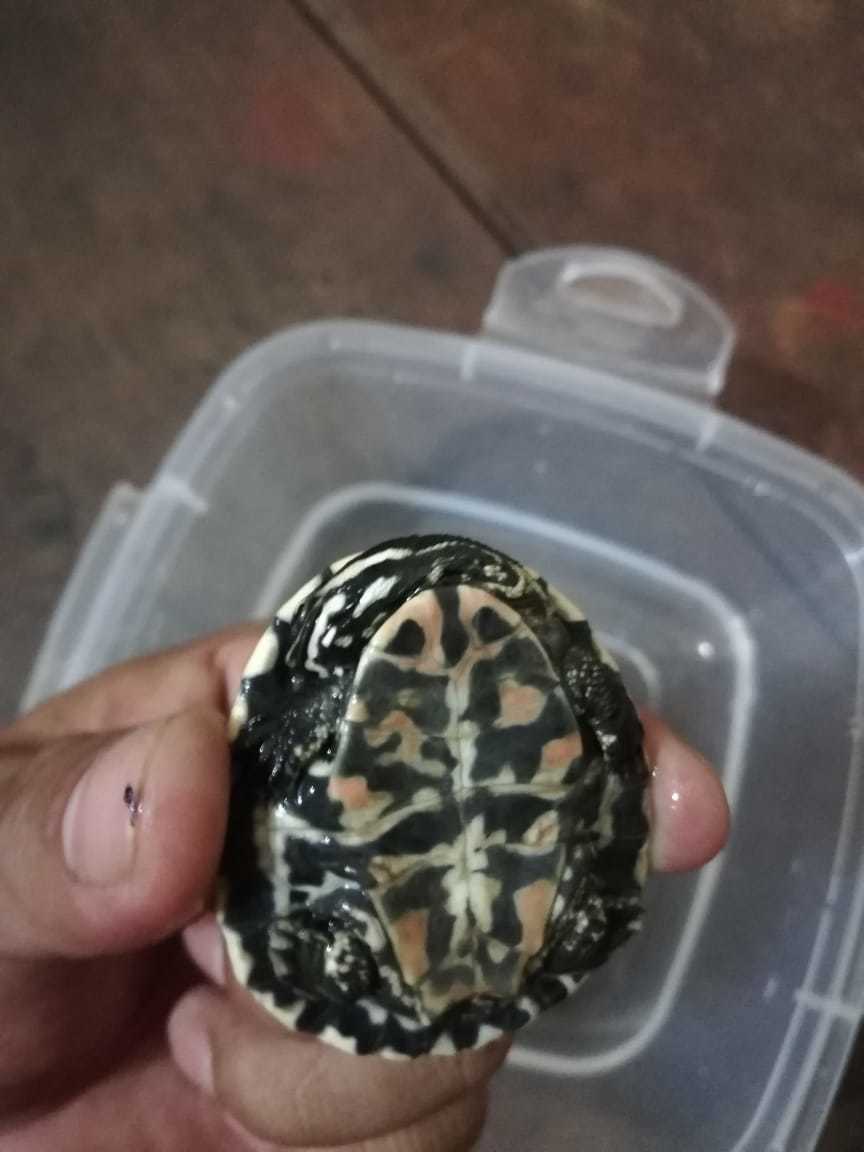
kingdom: Animalia
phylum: Chordata
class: Testudines
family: Chelidae
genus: Phrynops
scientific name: Phrynops geoffroanus
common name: Side-necked turtle of geoffroy
